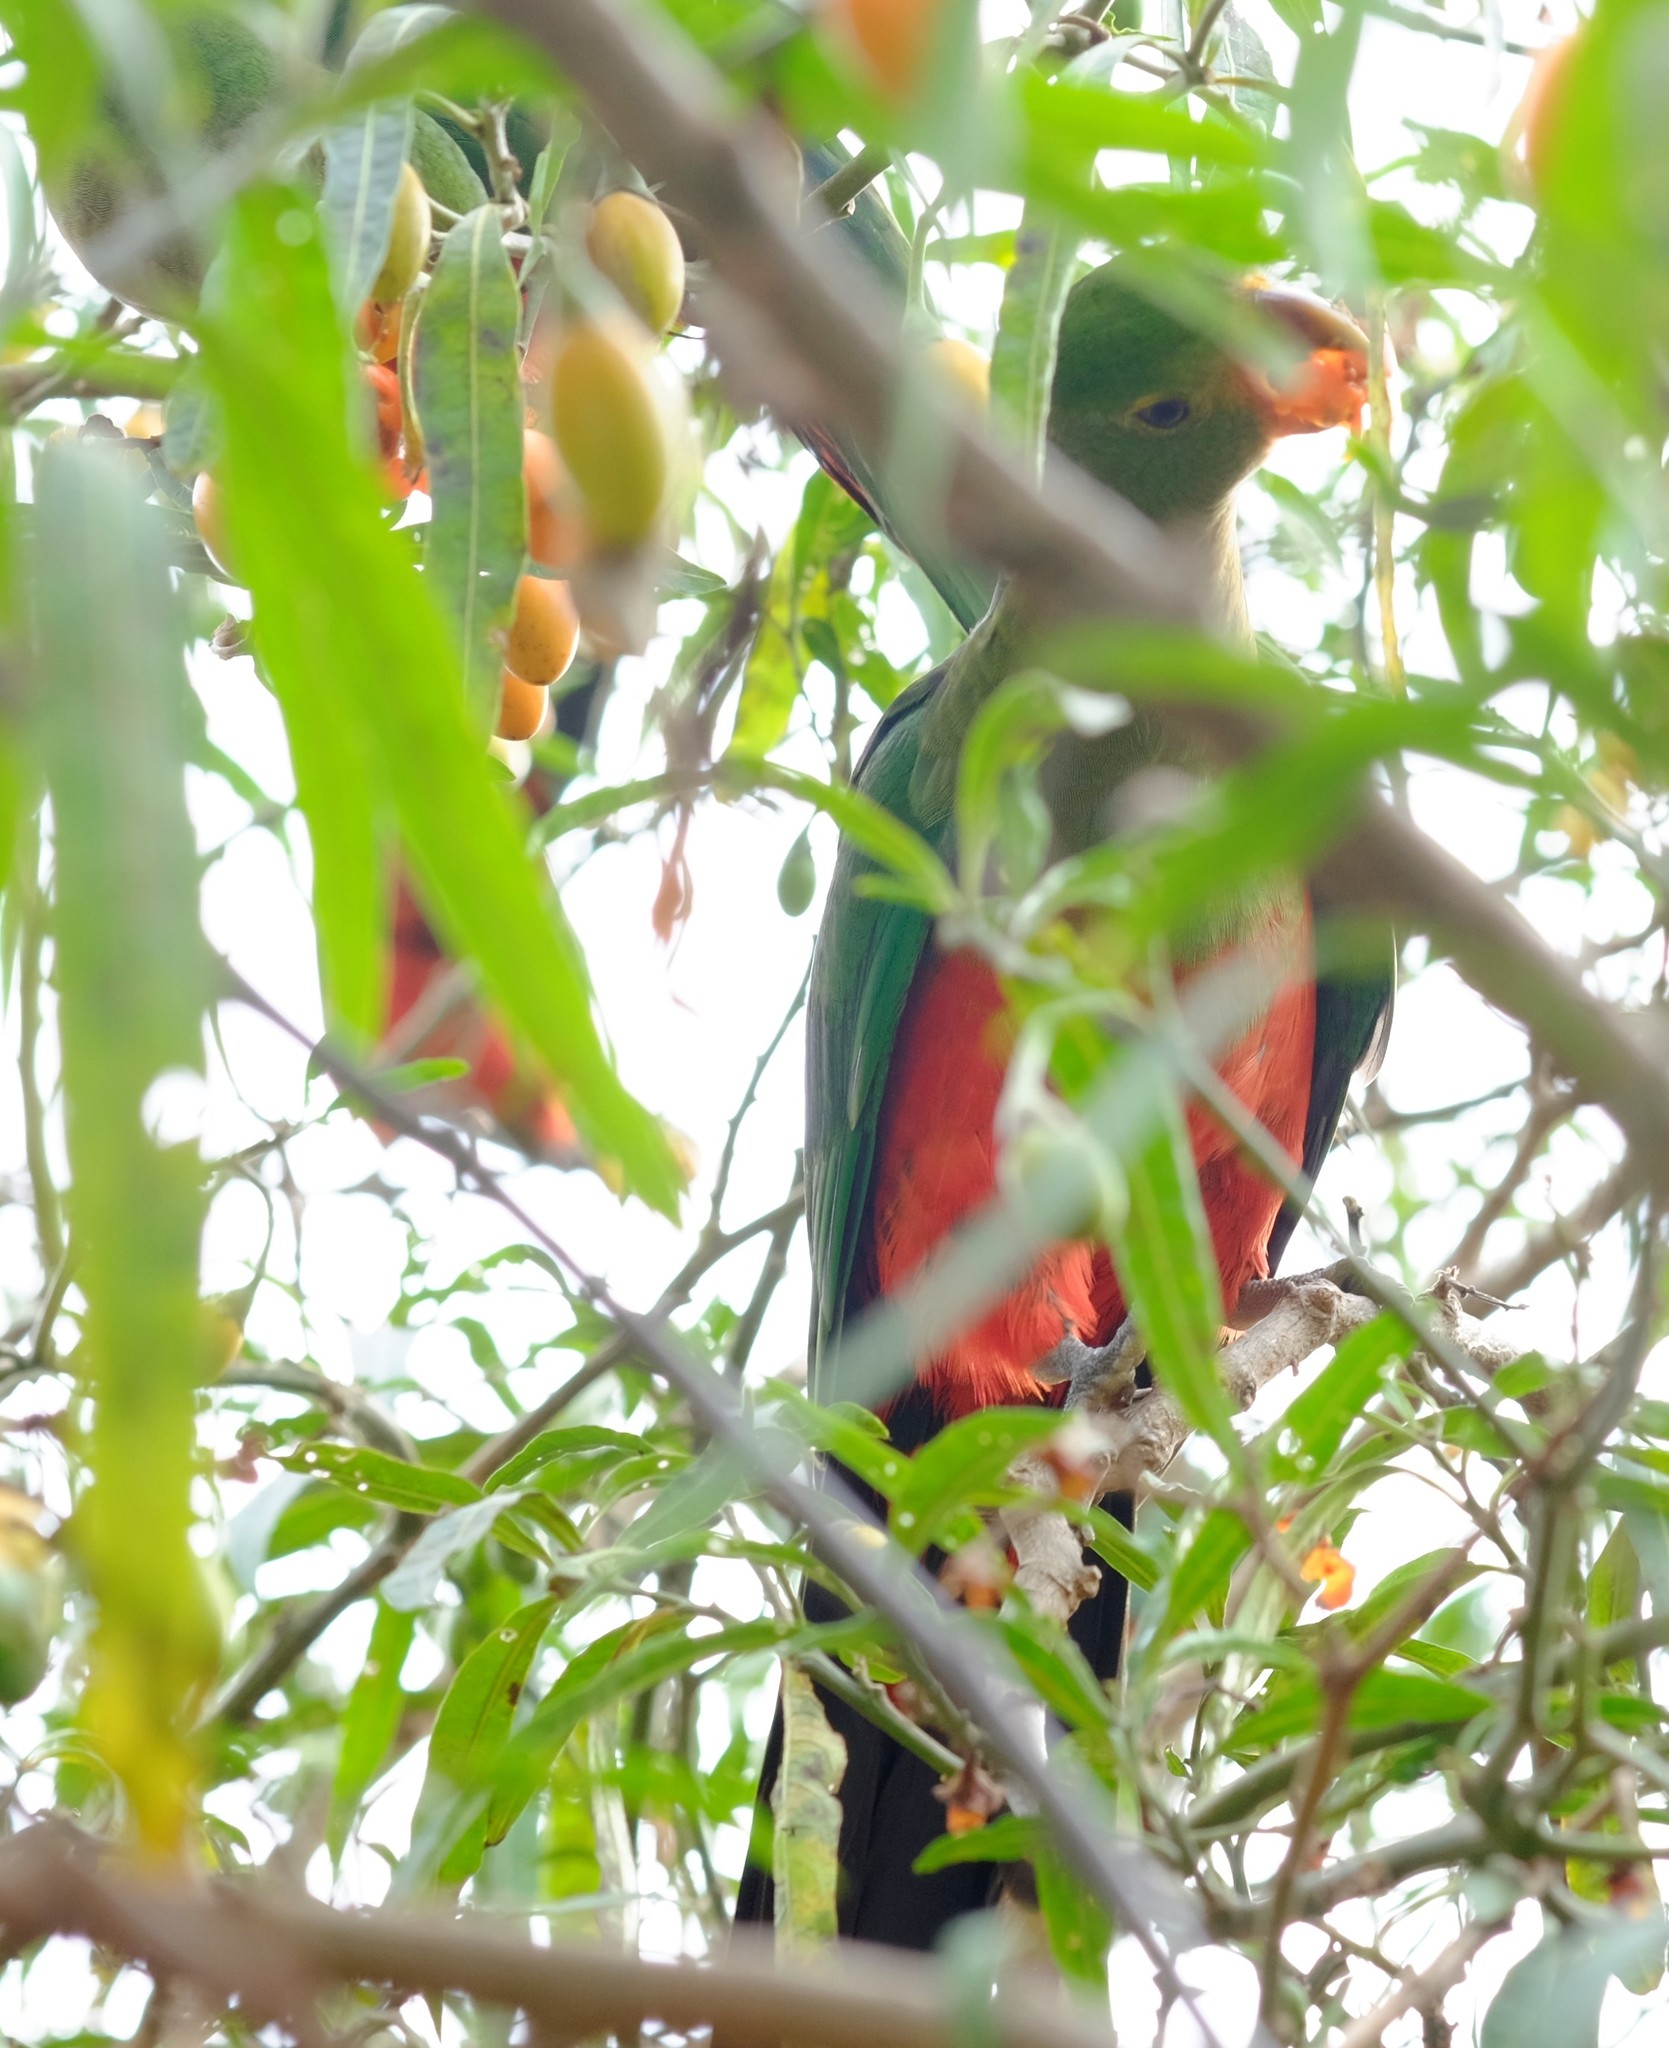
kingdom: Animalia
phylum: Chordata
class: Aves
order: Psittaciformes
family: Psittacidae
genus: Alisterus
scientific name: Alisterus scapularis
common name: Australian king parrot
